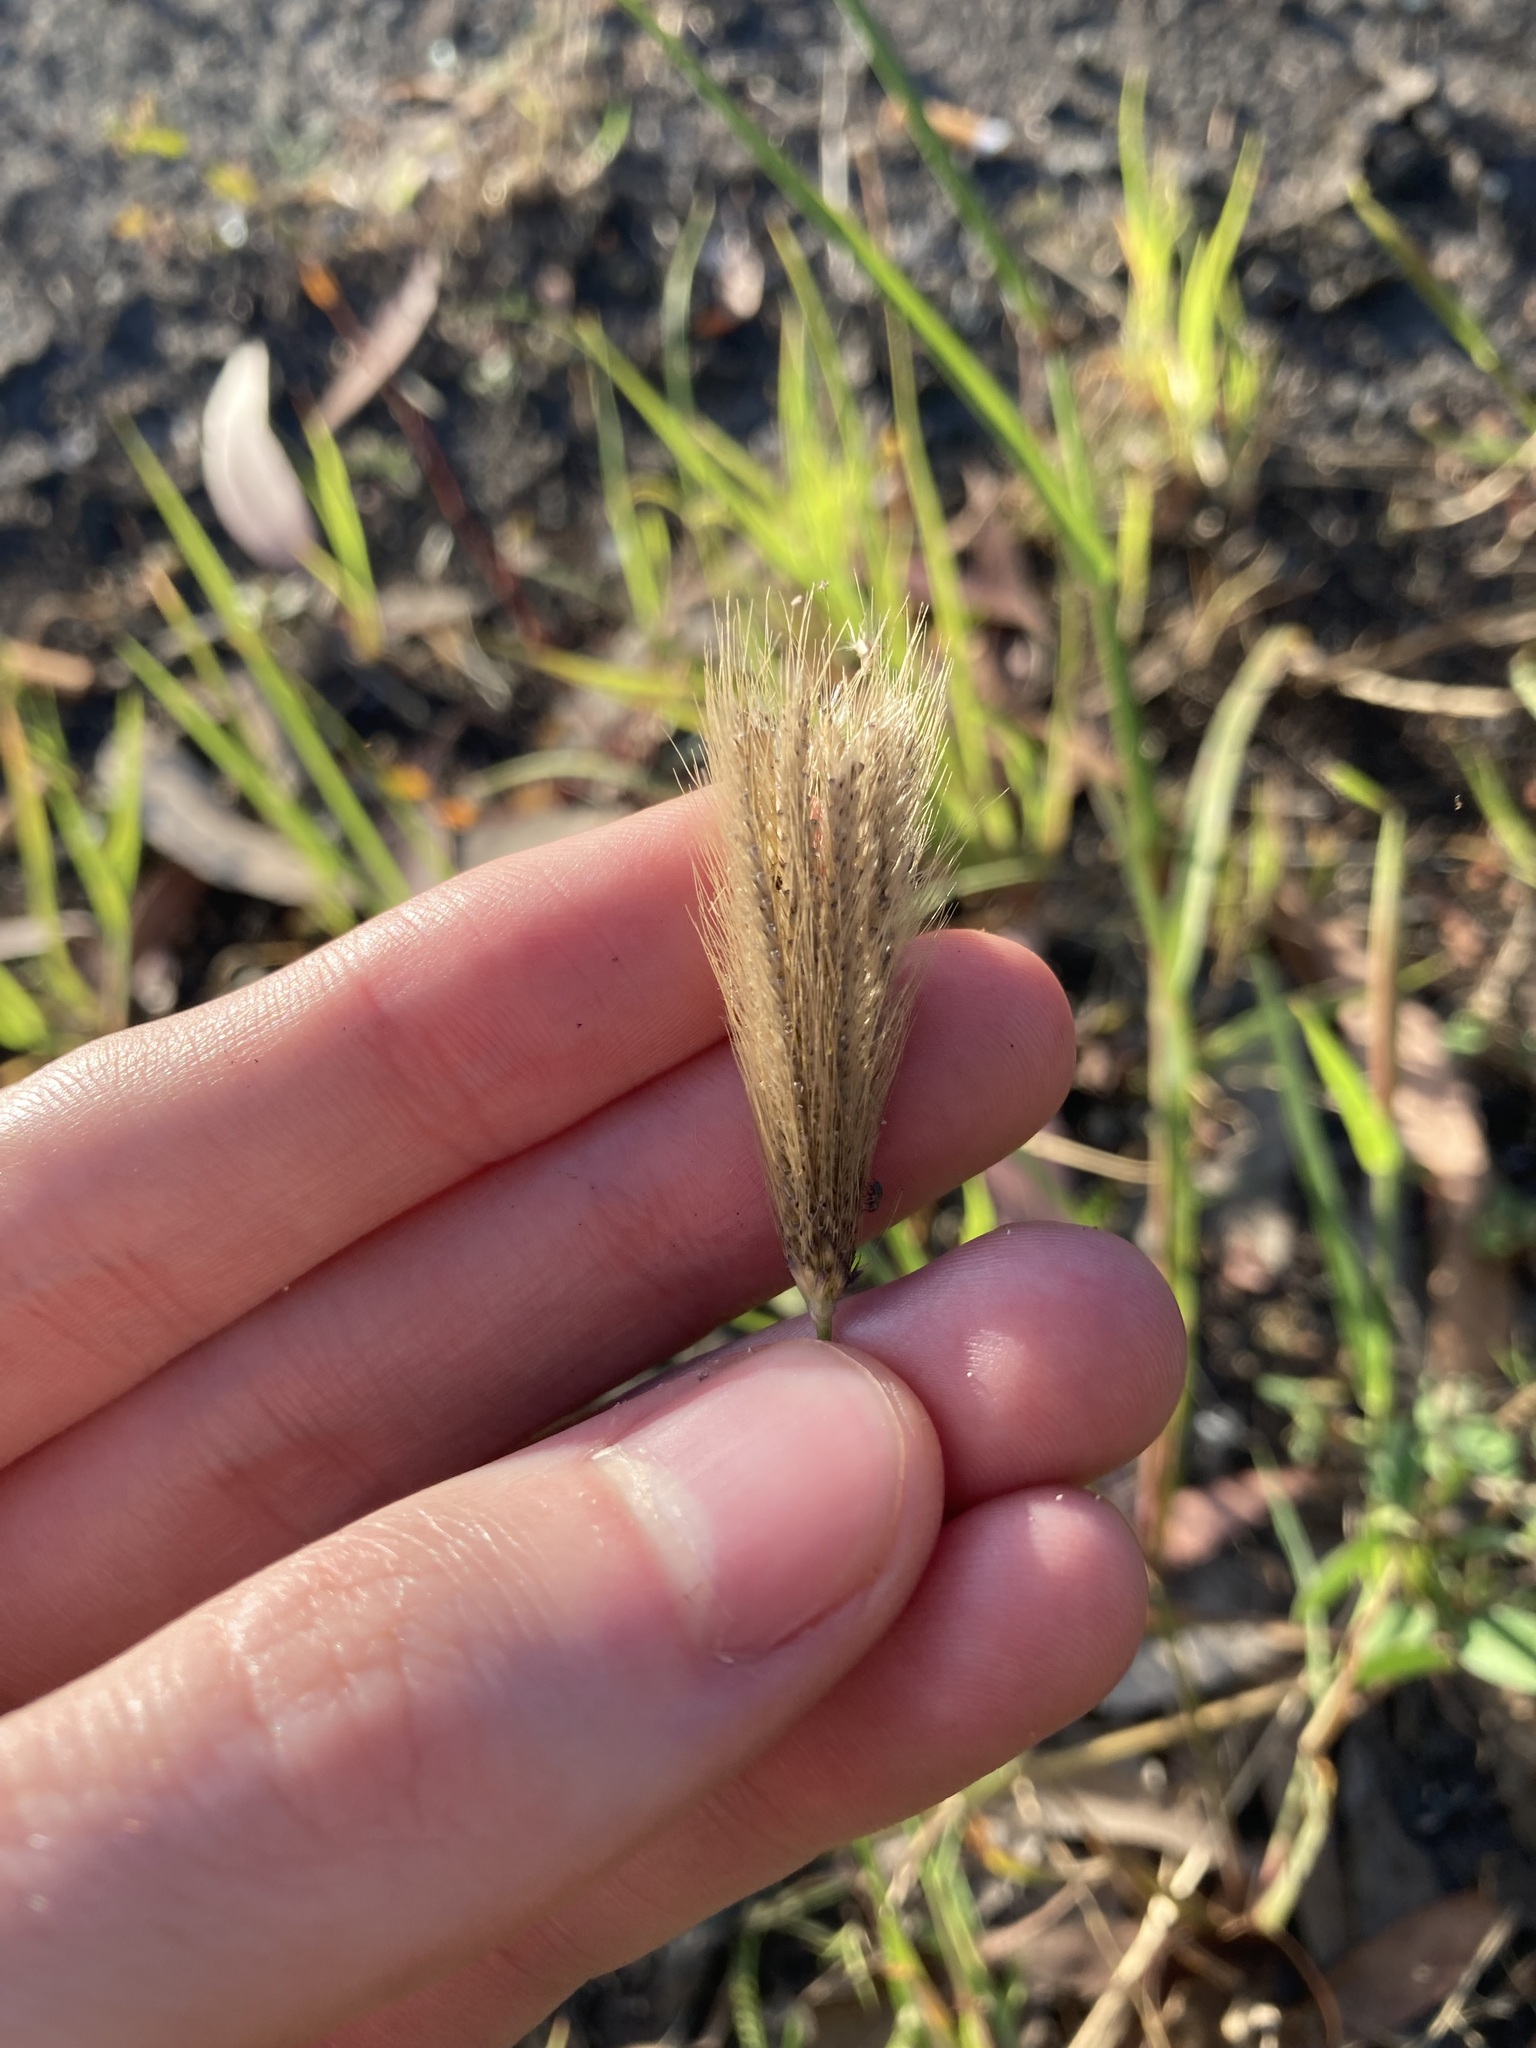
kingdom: Plantae
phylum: Tracheophyta
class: Liliopsida
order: Poales
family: Poaceae
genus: Chloris
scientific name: Chloris virgata
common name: Feathery rhodes-grass
